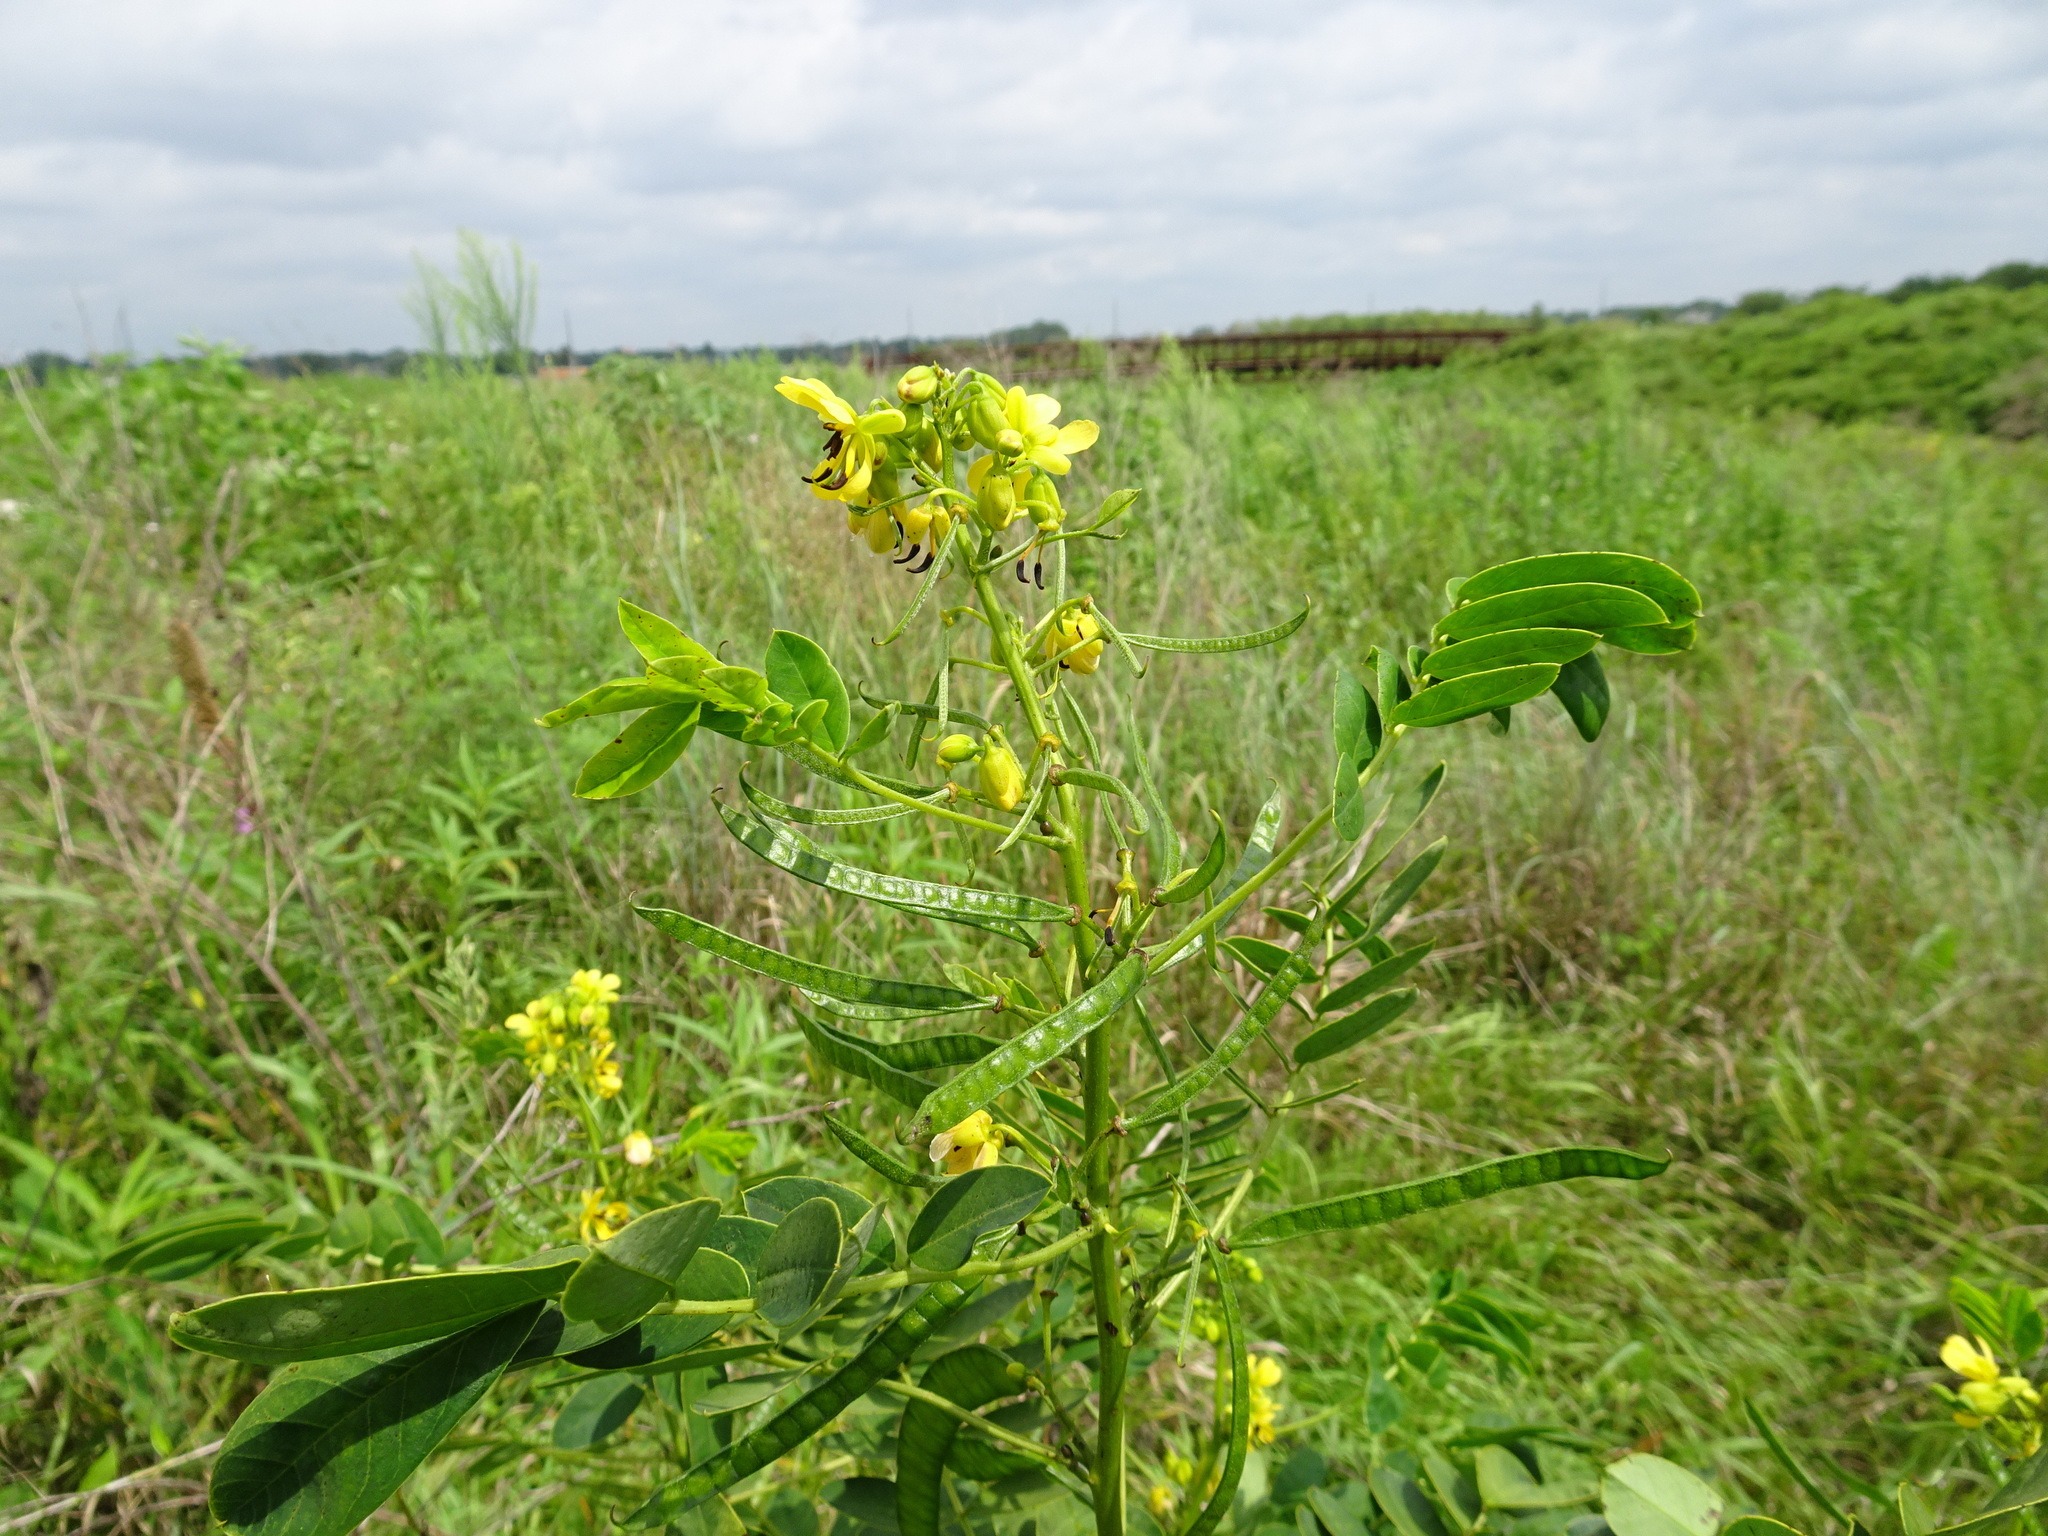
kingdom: Plantae
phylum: Tracheophyta
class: Magnoliopsida
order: Fabales
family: Fabaceae
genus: Senna
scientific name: Senna marilandica
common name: American senna
